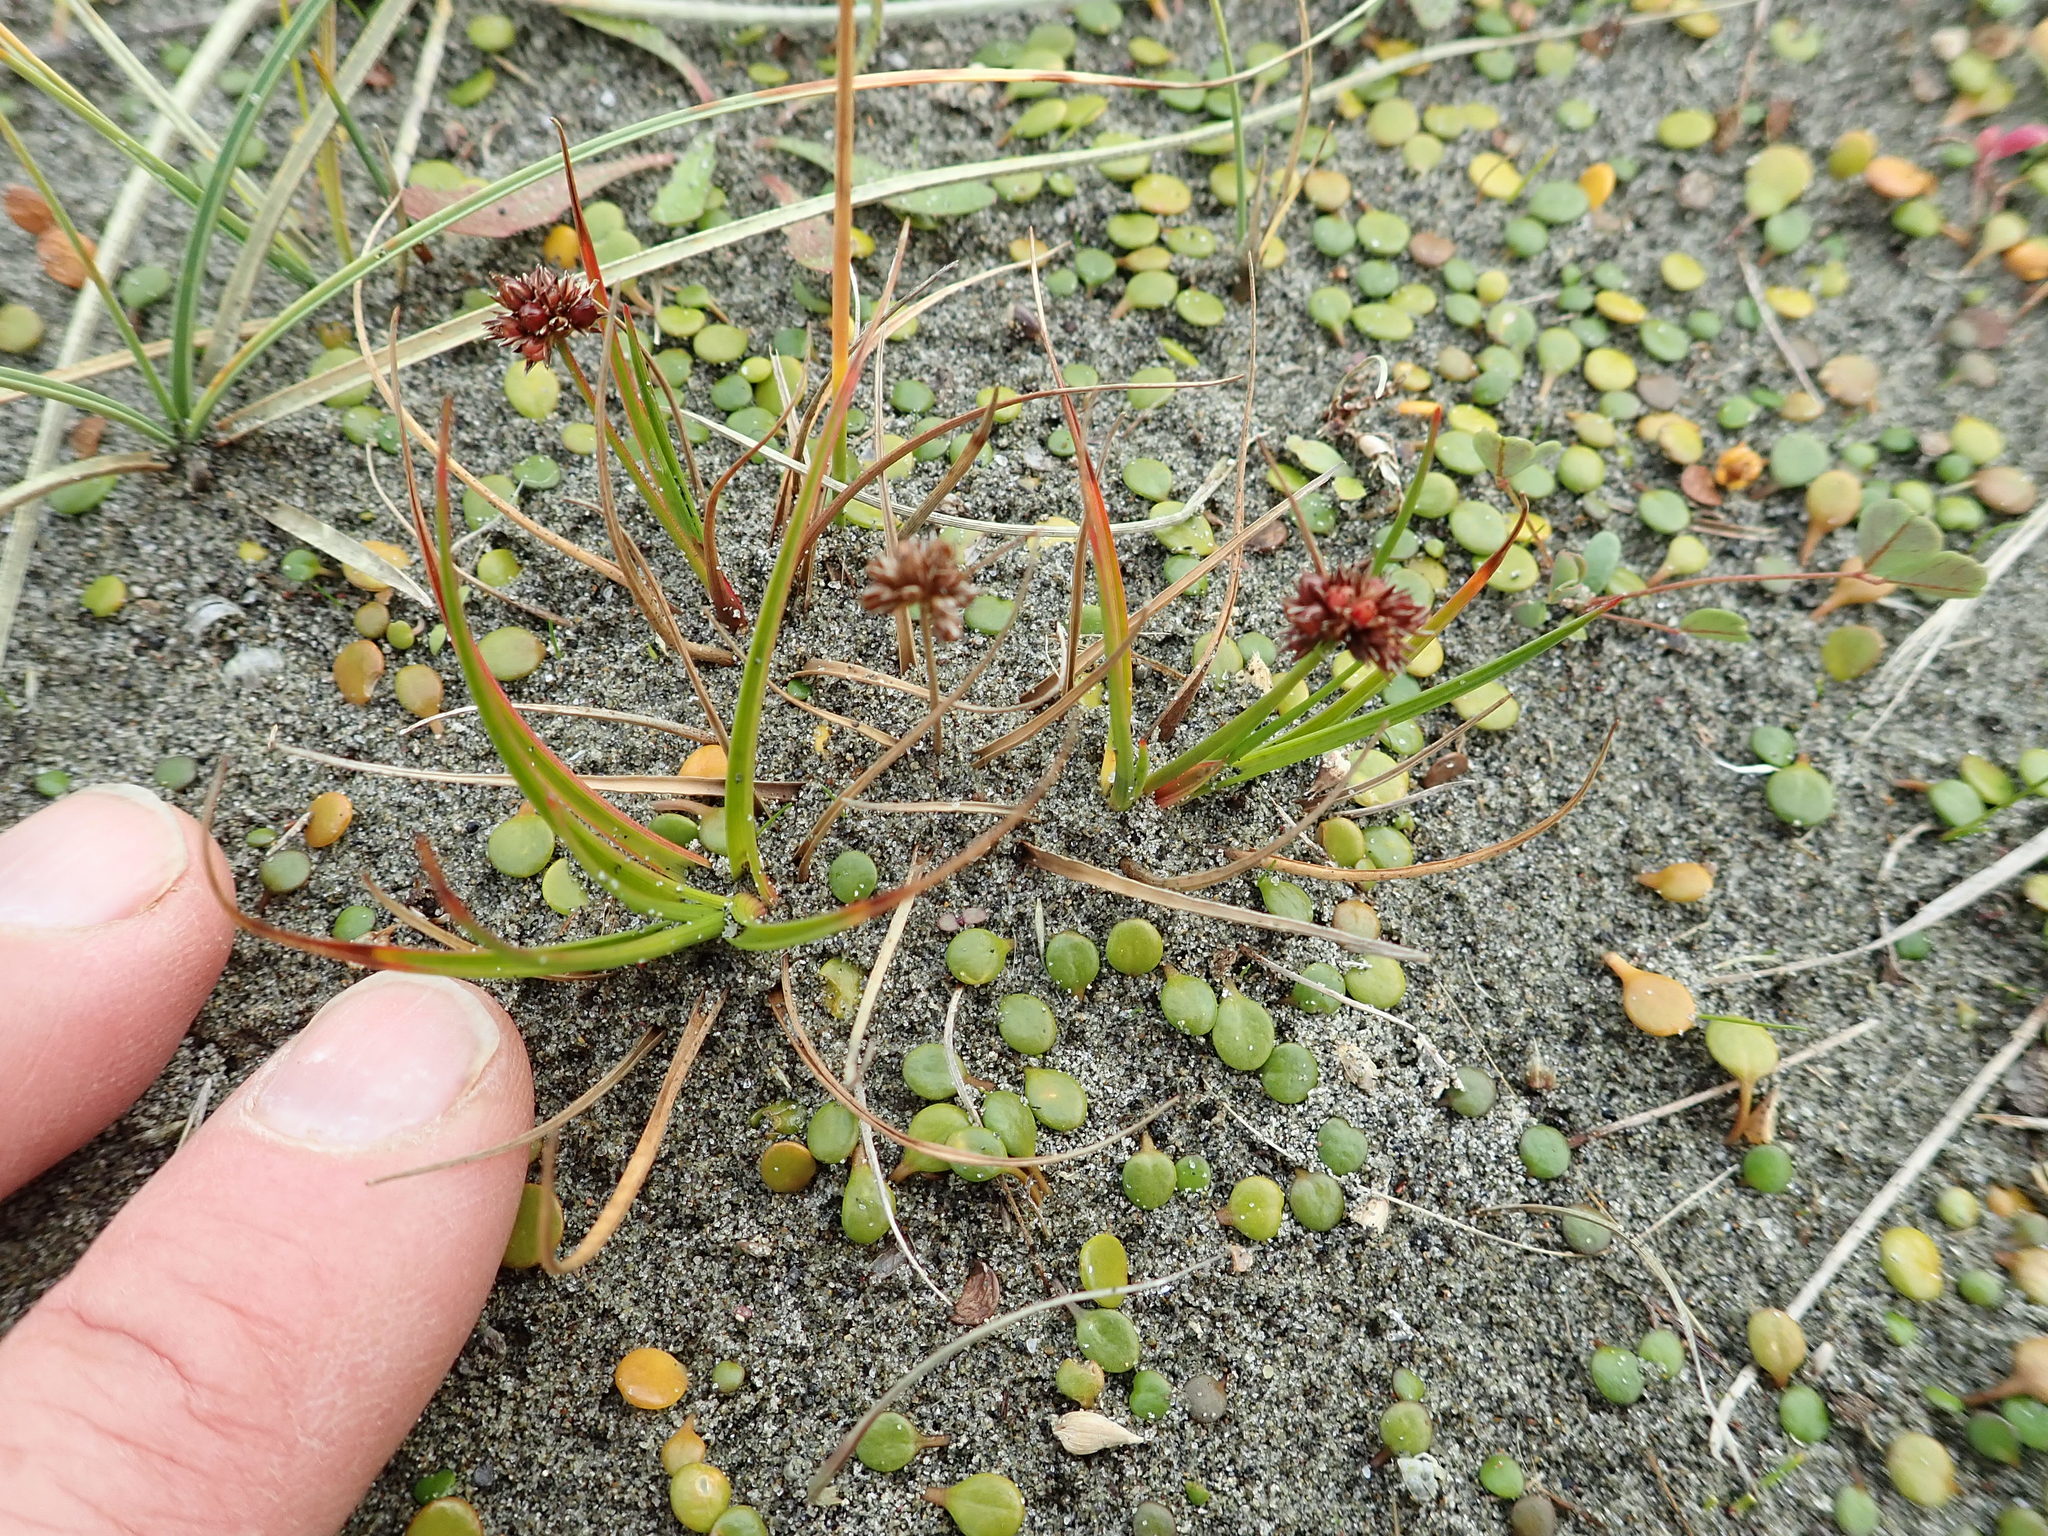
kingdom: Plantae
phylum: Tracheophyta
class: Liliopsida
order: Poales
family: Juncaceae
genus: Juncus
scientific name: Juncus caespiticius
